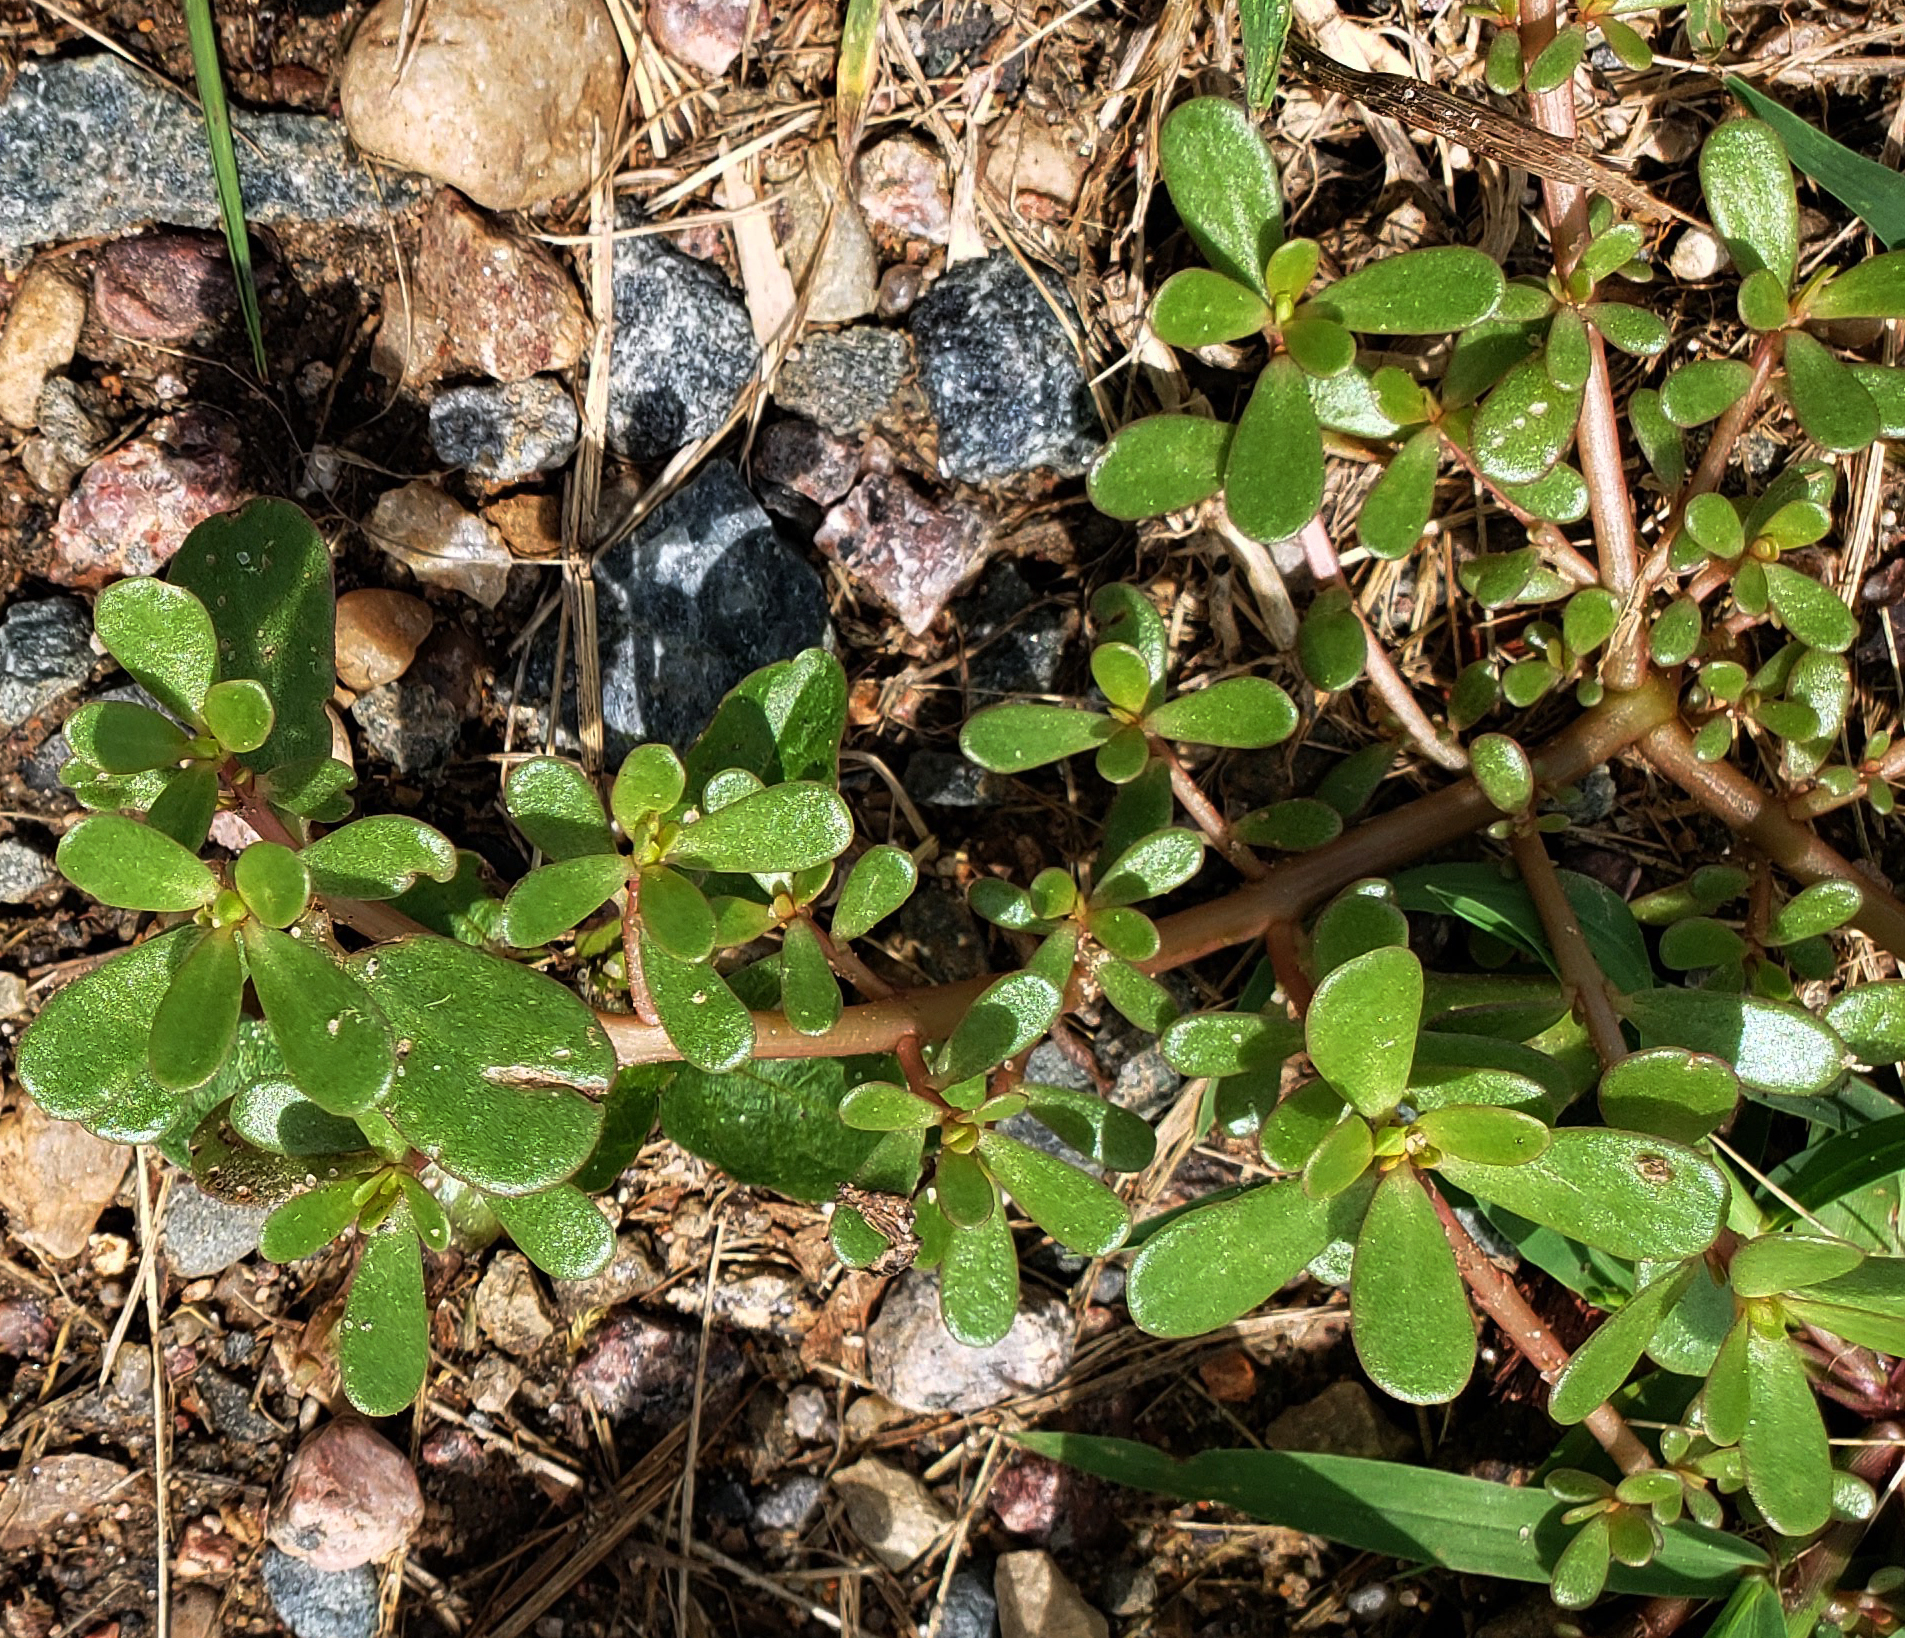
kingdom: Plantae
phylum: Tracheophyta
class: Magnoliopsida
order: Caryophyllales
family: Portulacaceae
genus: Portulaca
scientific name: Portulaca oleracea
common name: Common purslane
